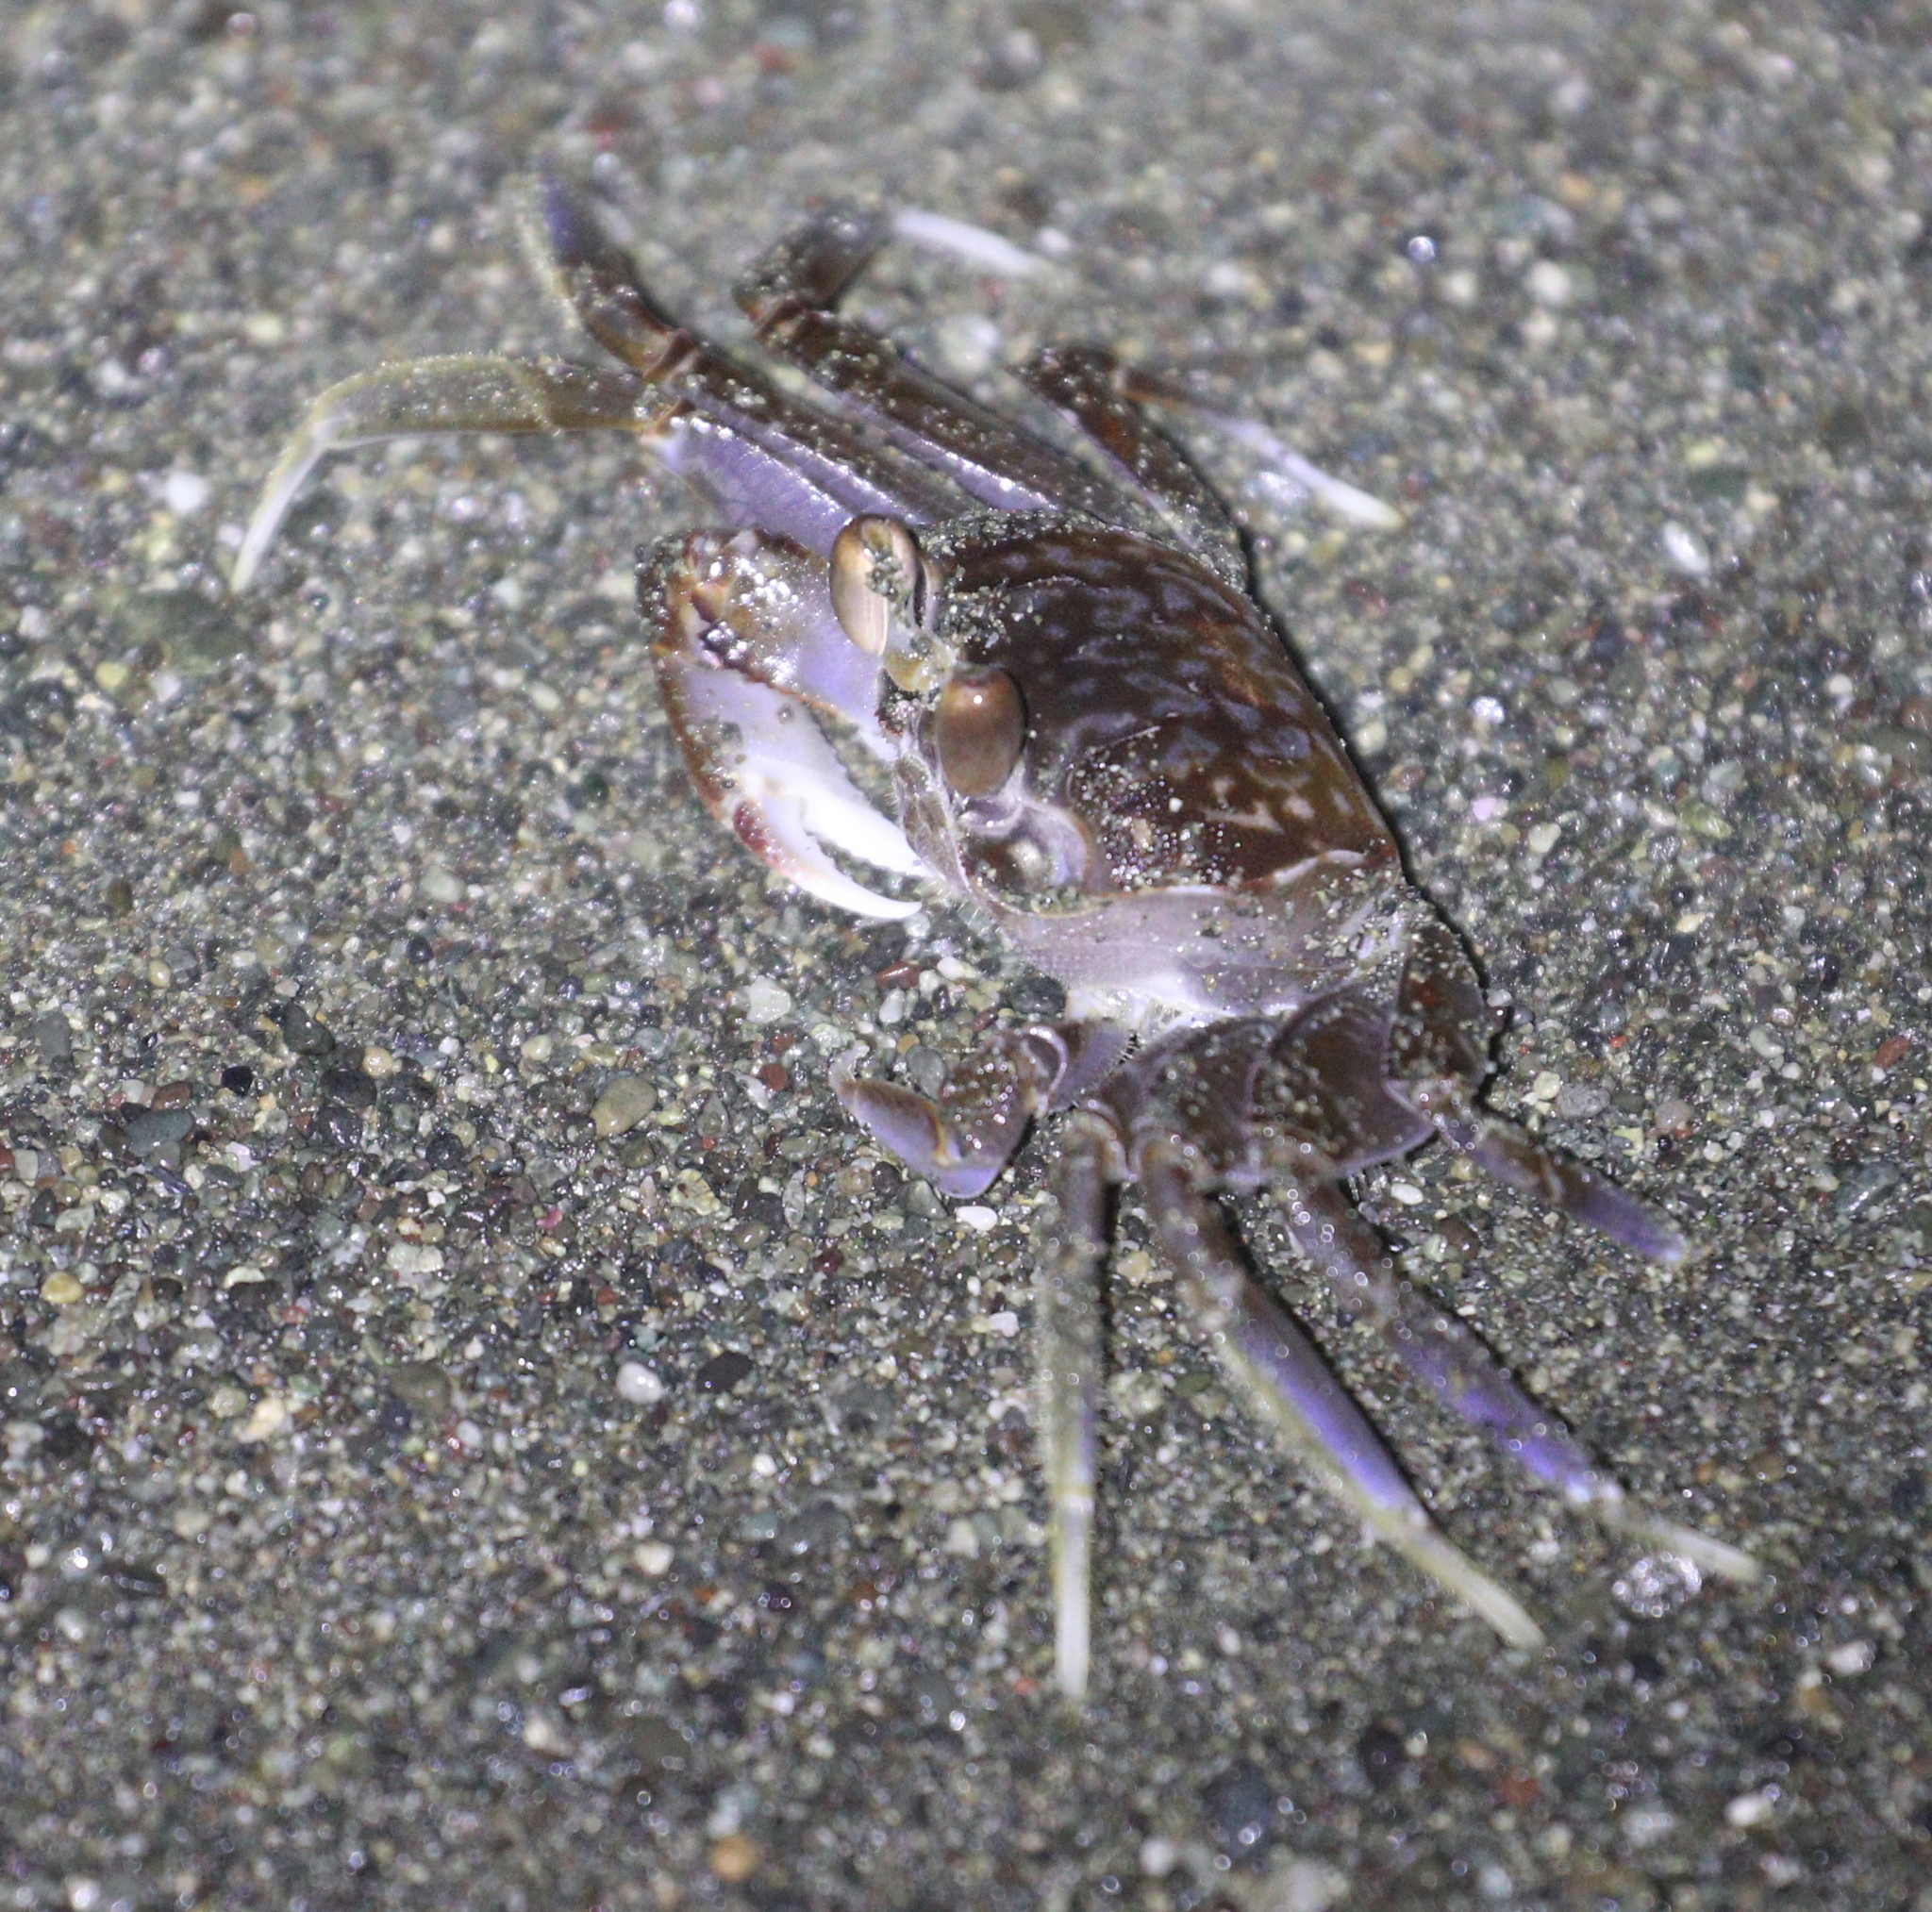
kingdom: Animalia
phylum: Arthropoda
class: Malacostraca
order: Decapoda
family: Ocypodidae
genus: Ocypode
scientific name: Ocypode occidentalis
